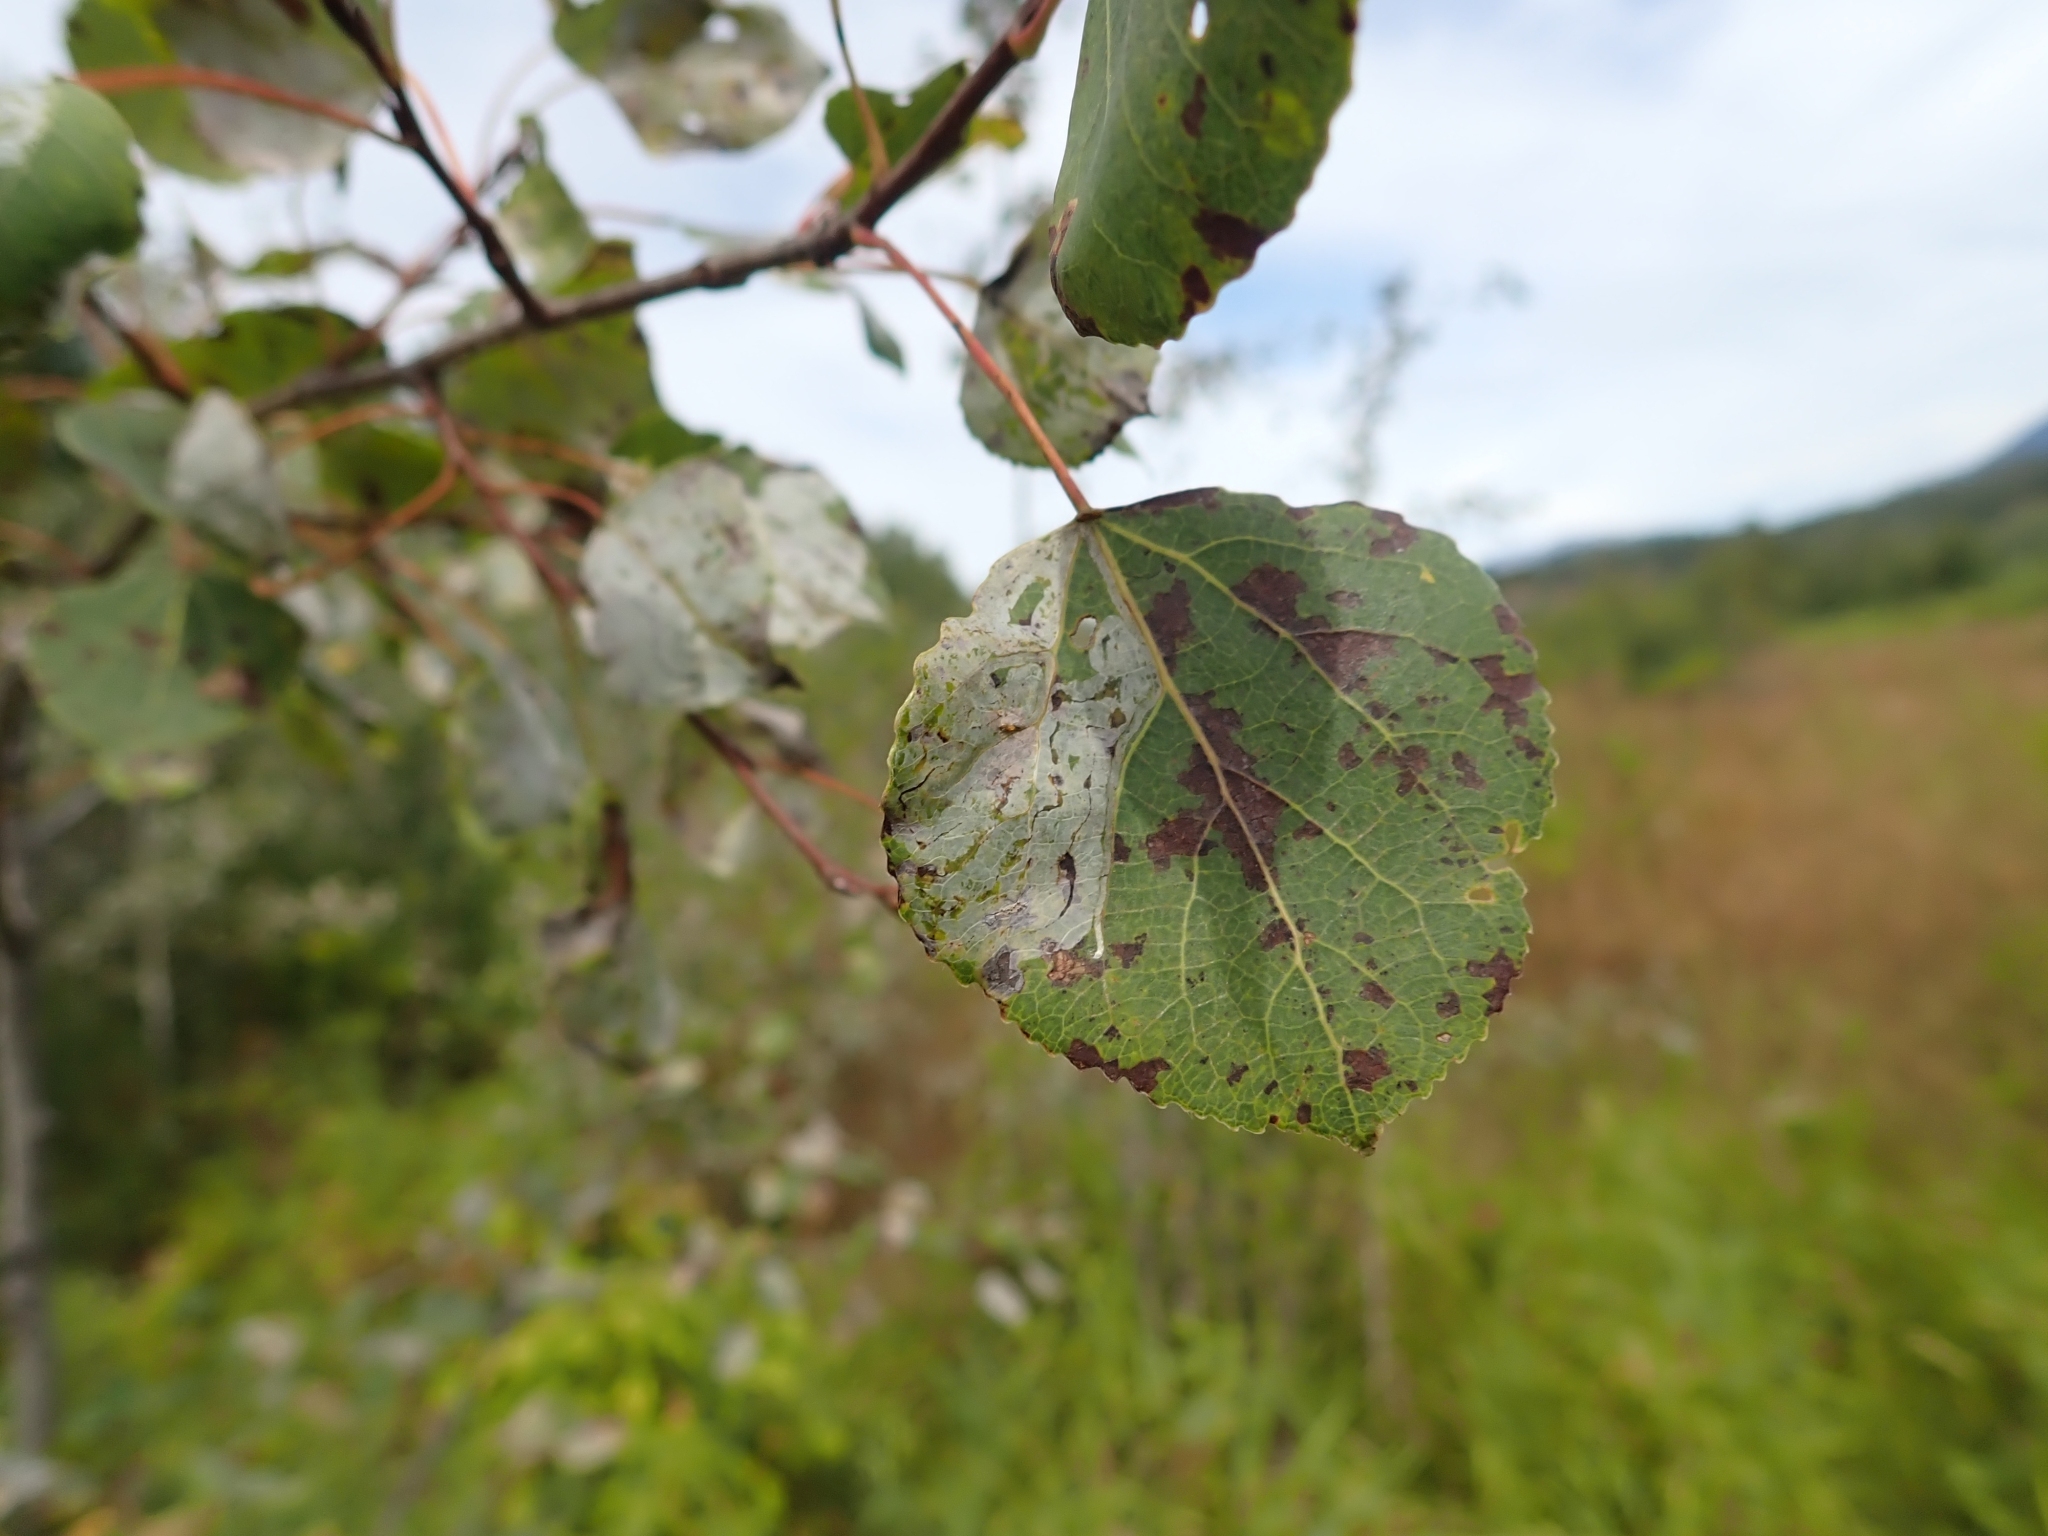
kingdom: Plantae
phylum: Tracheophyta
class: Magnoliopsida
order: Malpighiales
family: Salicaceae
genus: Populus
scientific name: Populus tremuloides
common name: Quaking aspen
